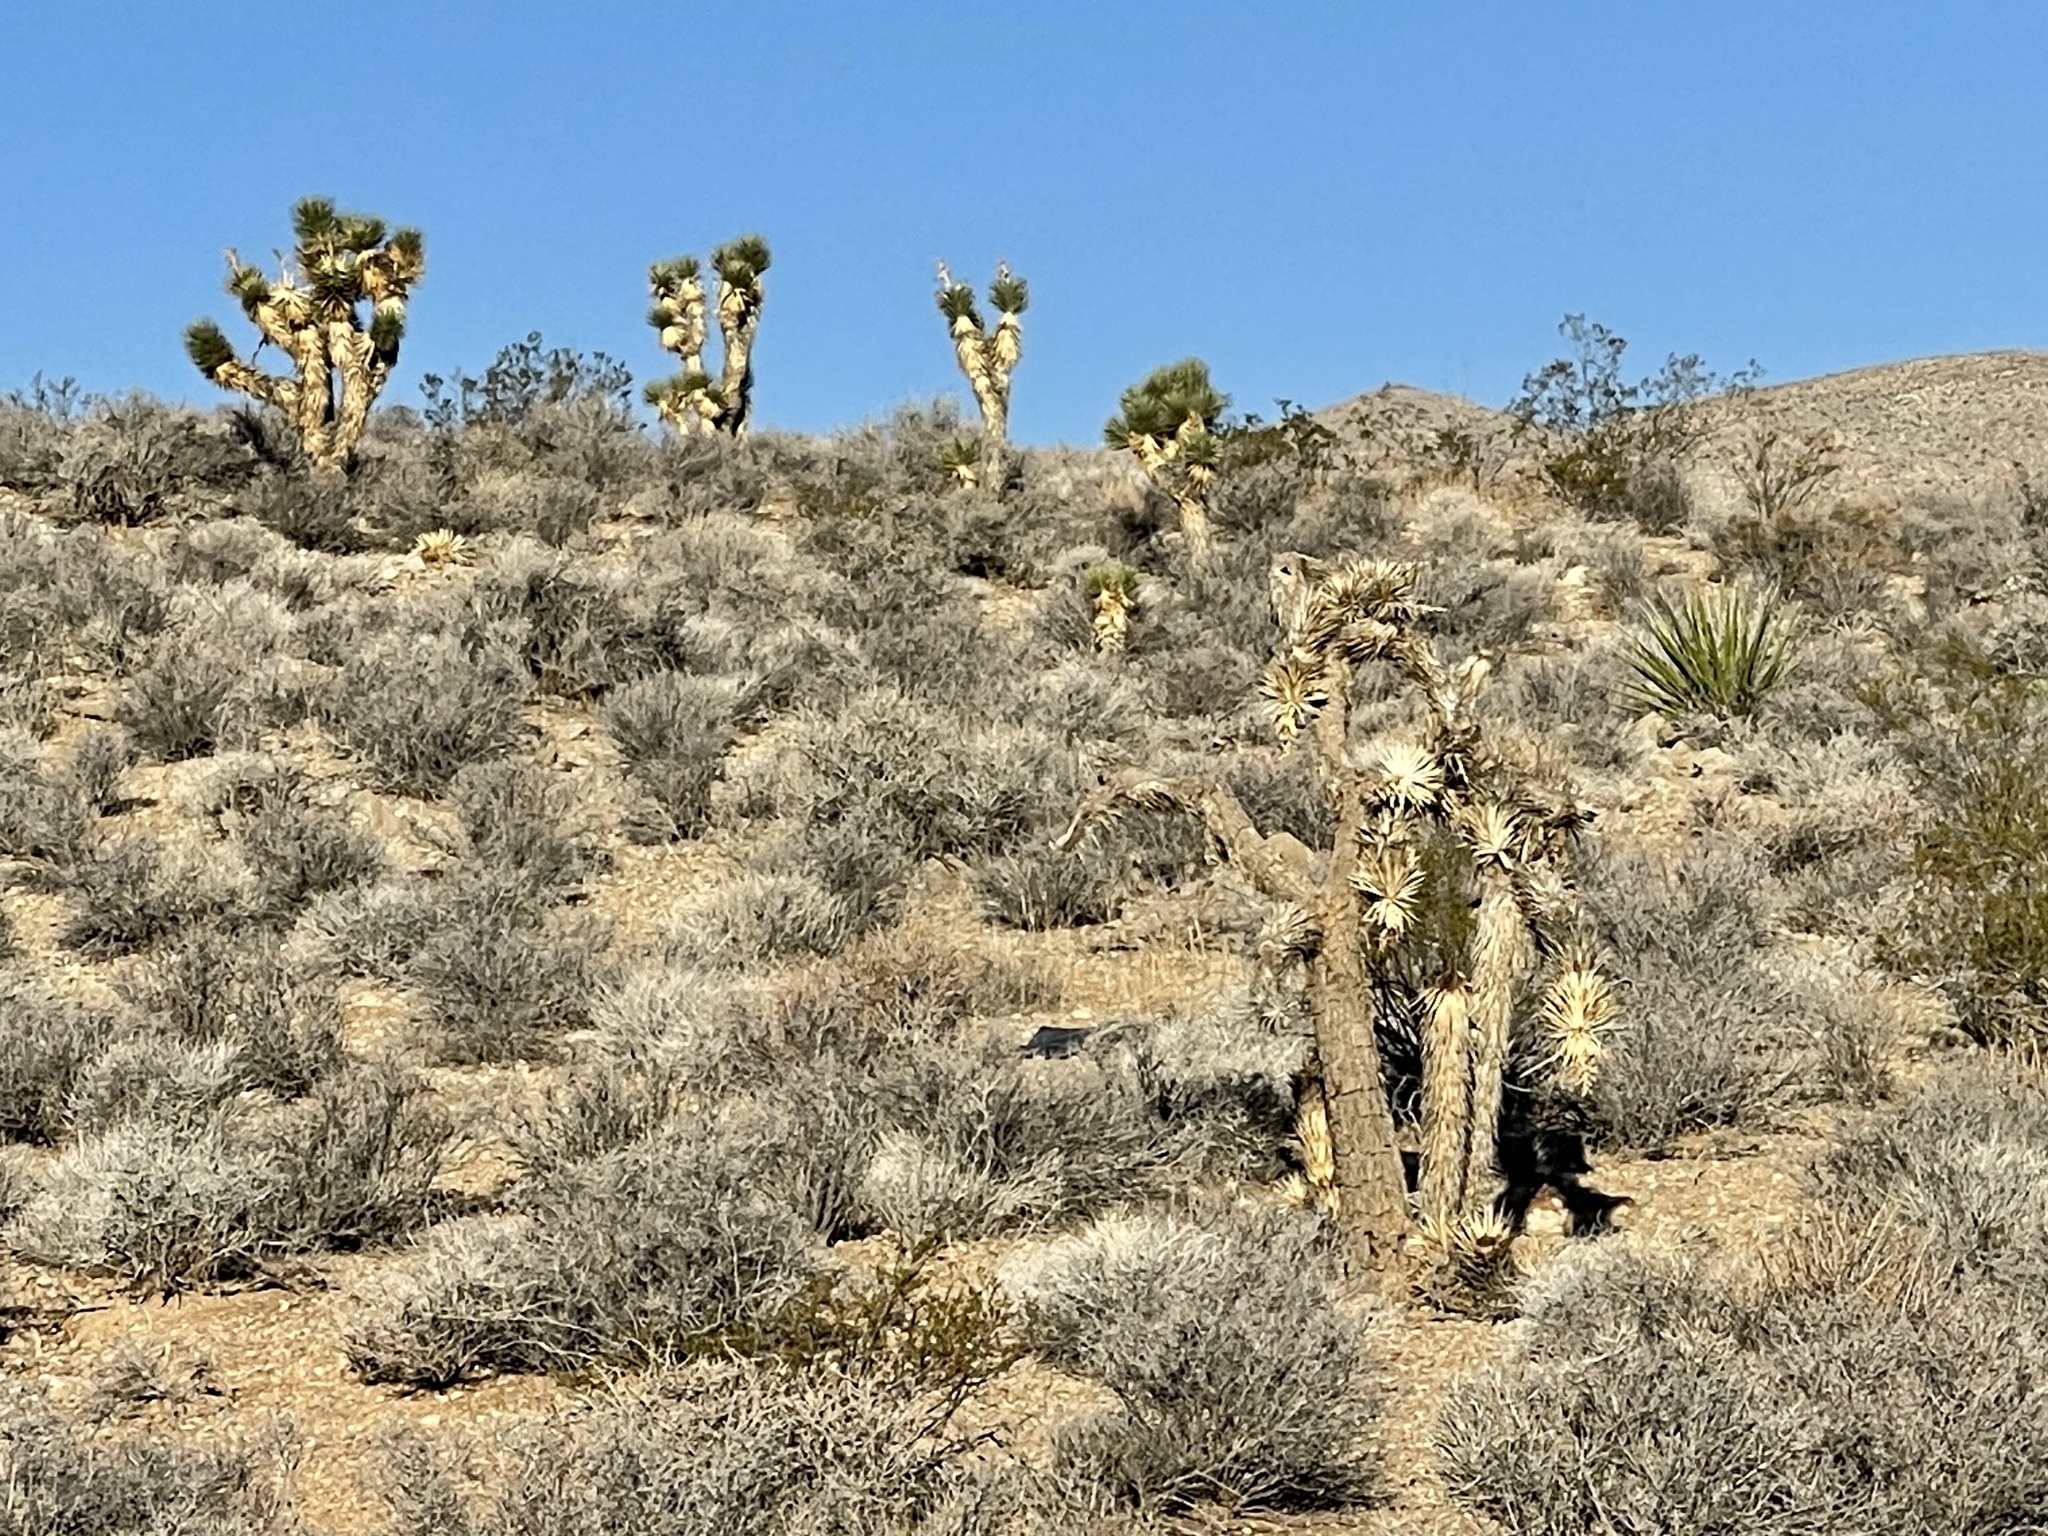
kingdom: Plantae
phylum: Tracheophyta
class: Liliopsida
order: Asparagales
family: Asparagaceae
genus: Yucca
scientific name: Yucca brevifolia
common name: Joshua tree
